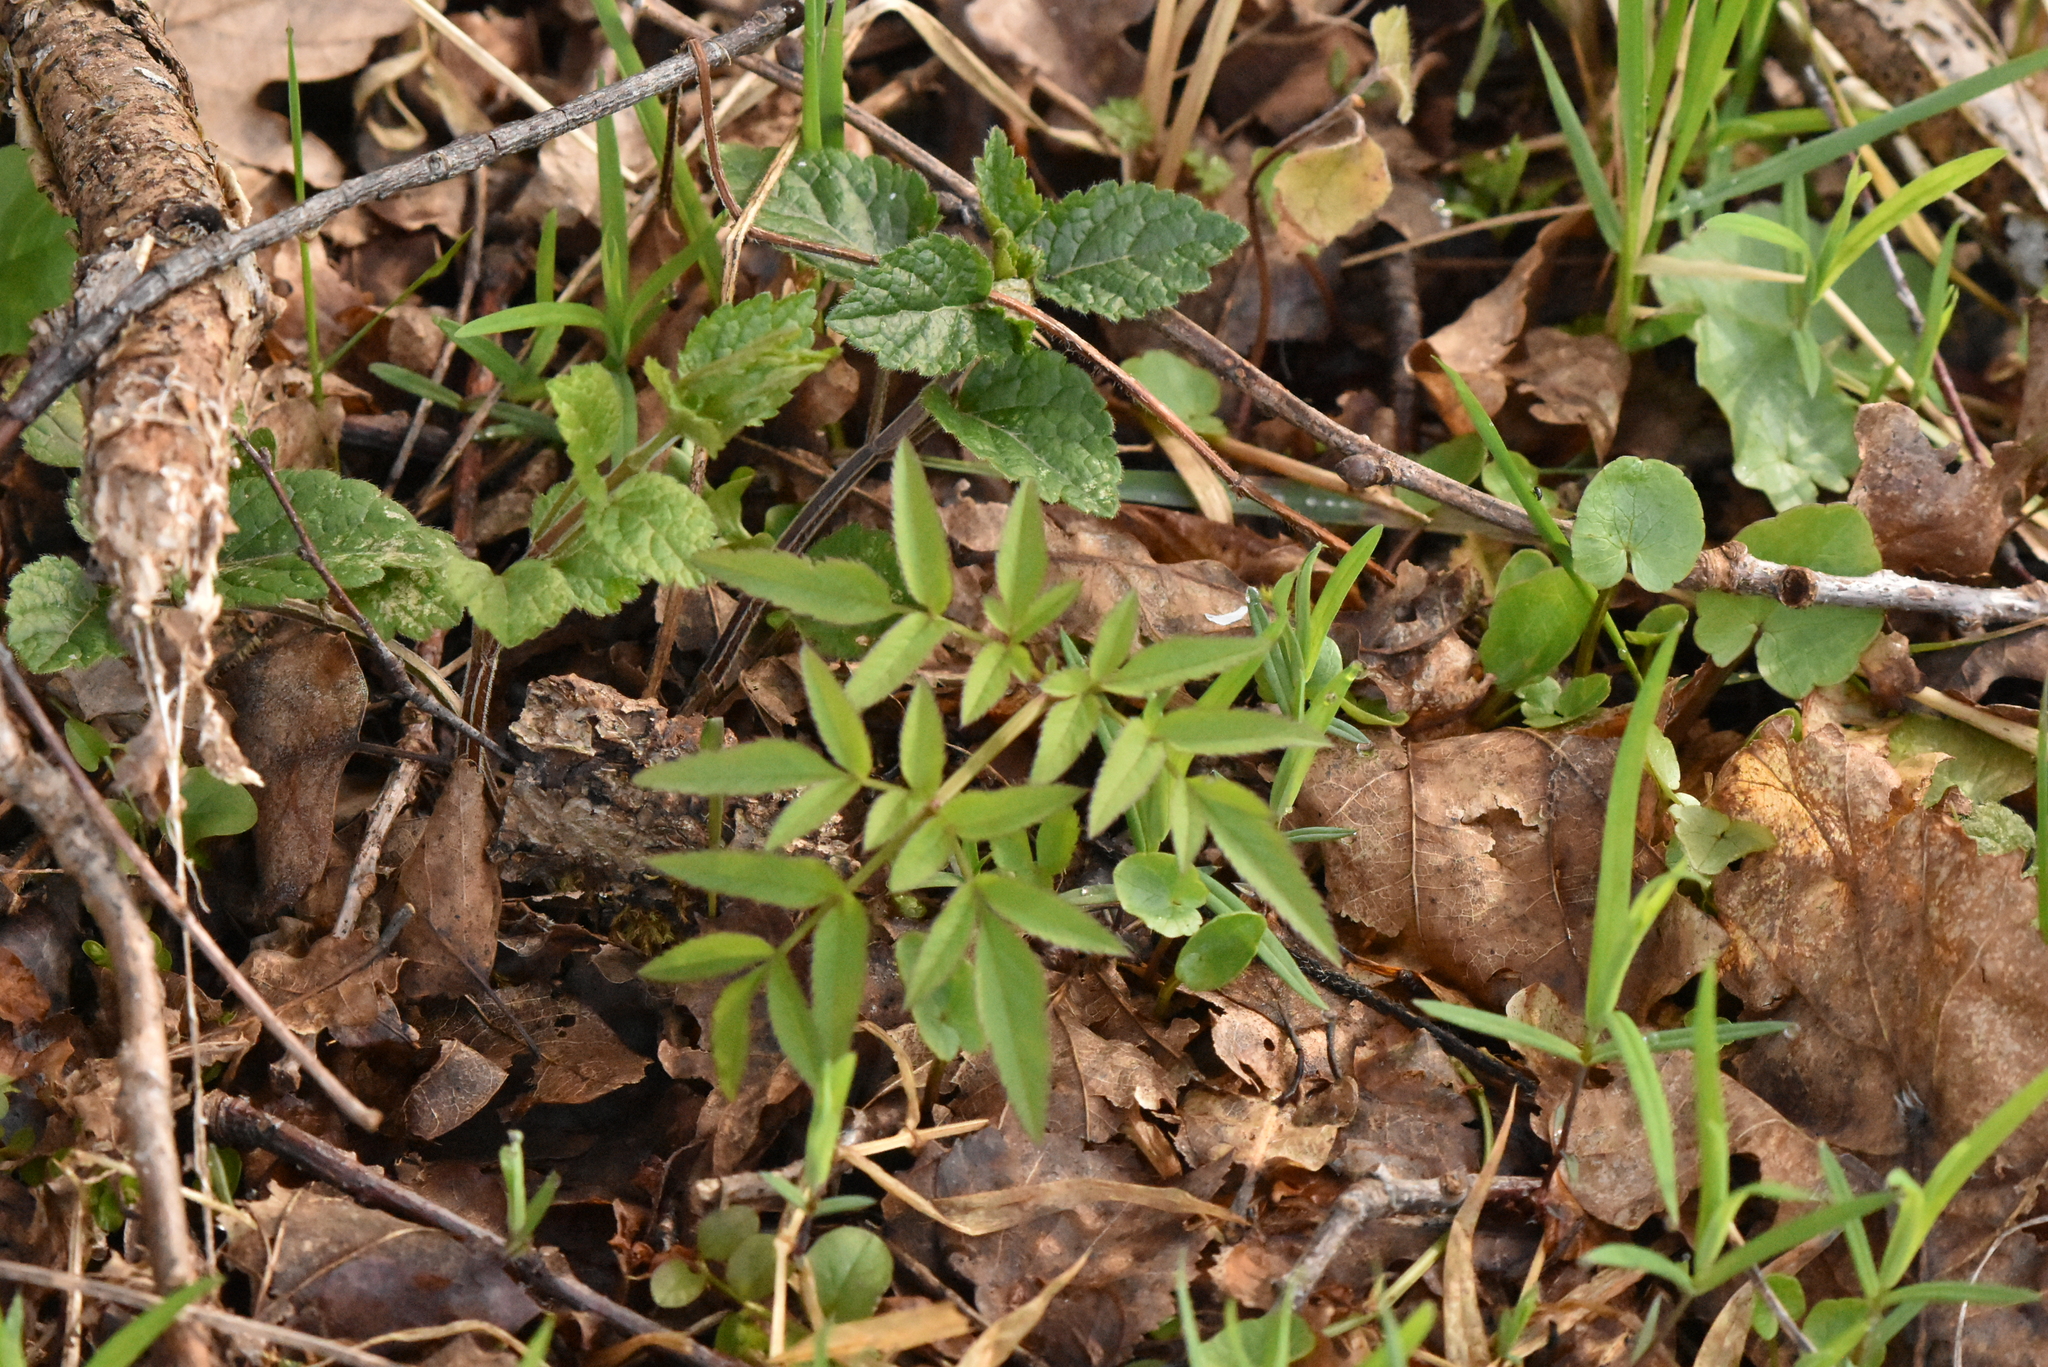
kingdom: Plantae
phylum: Tracheophyta
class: Magnoliopsida
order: Apiales
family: Apiaceae
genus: Angelica
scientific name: Angelica sylvestris
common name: Wild angelica
